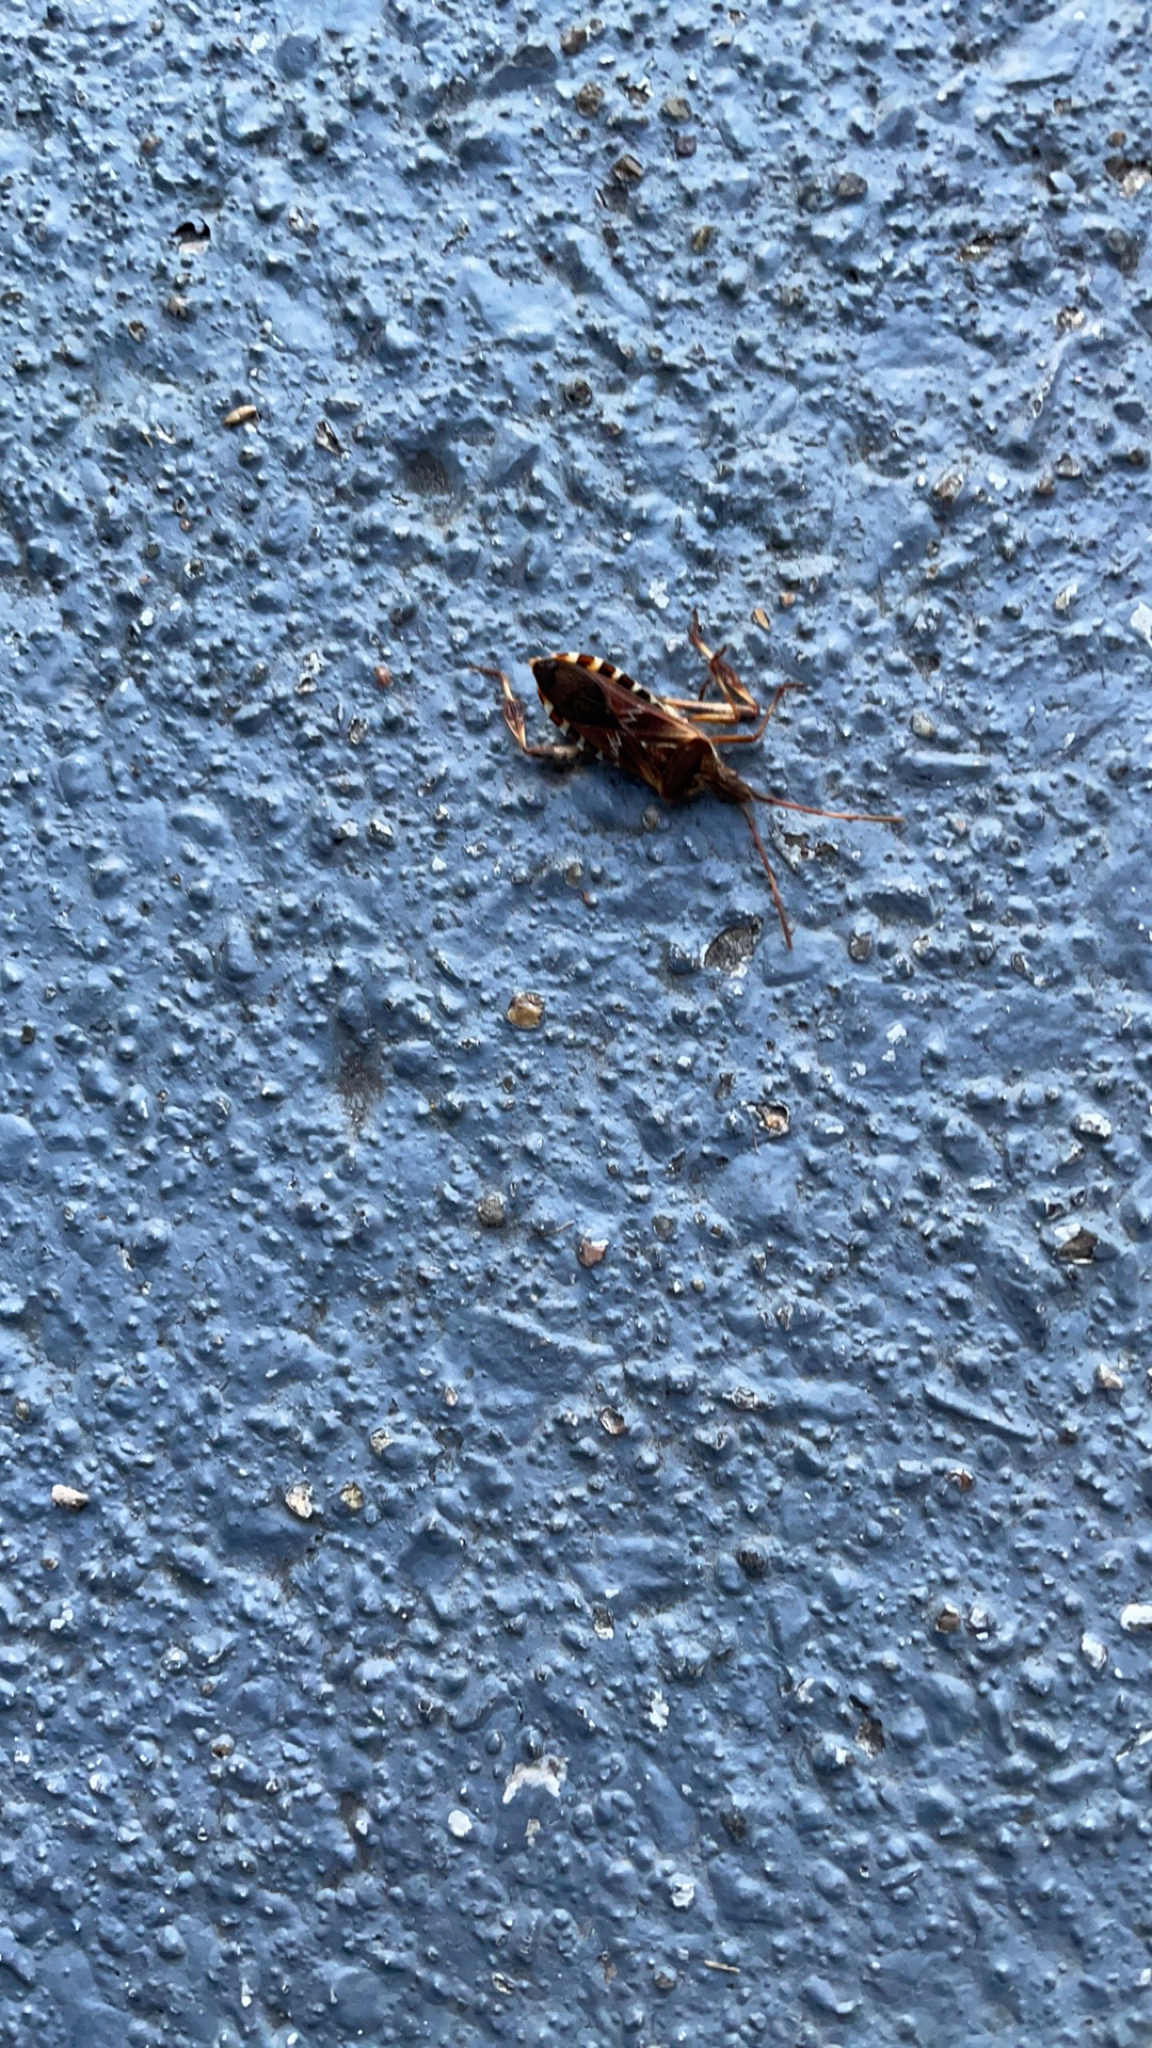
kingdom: Animalia
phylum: Arthropoda
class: Insecta
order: Hemiptera
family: Coreidae
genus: Leptoglossus
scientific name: Leptoglossus occidentalis
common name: Western conifer-seed bug
